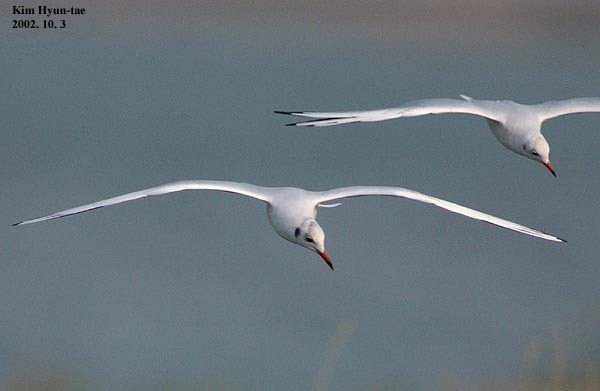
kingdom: Animalia
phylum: Chordata
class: Aves
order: Charadriiformes
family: Laridae
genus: Chroicocephalus
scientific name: Chroicocephalus ridibundus
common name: Black-headed gull
